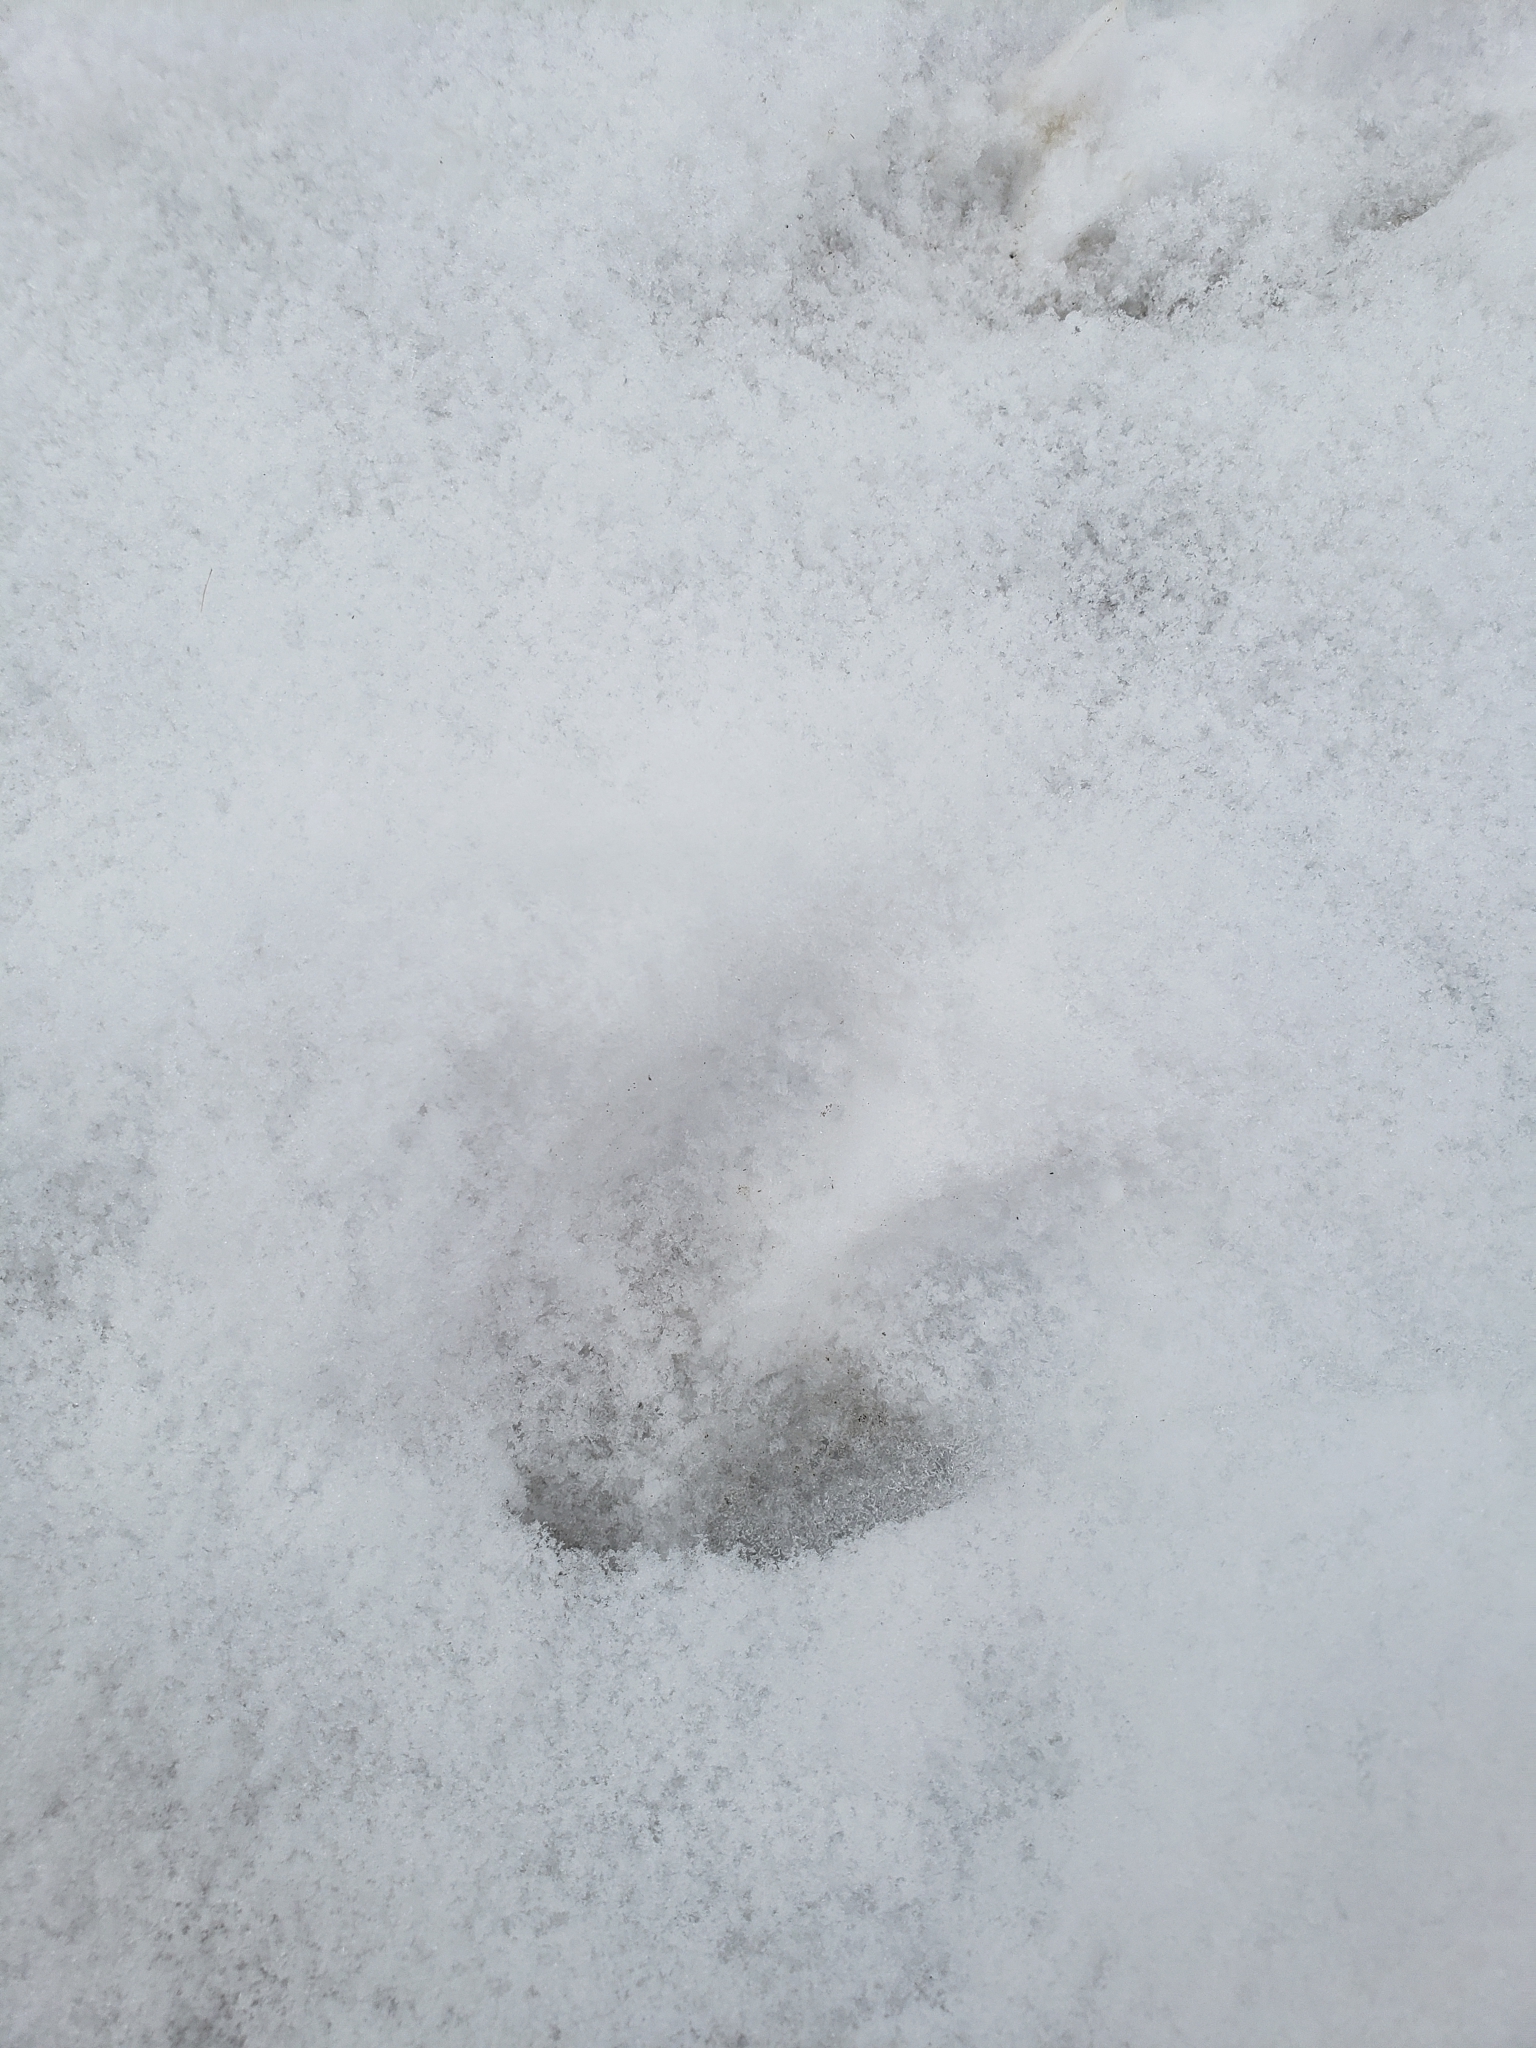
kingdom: Animalia
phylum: Chordata
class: Mammalia
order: Artiodactyla
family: Cervidae
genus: Odocoileus
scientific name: Odocoileus virginianus
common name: White-tailed deer
